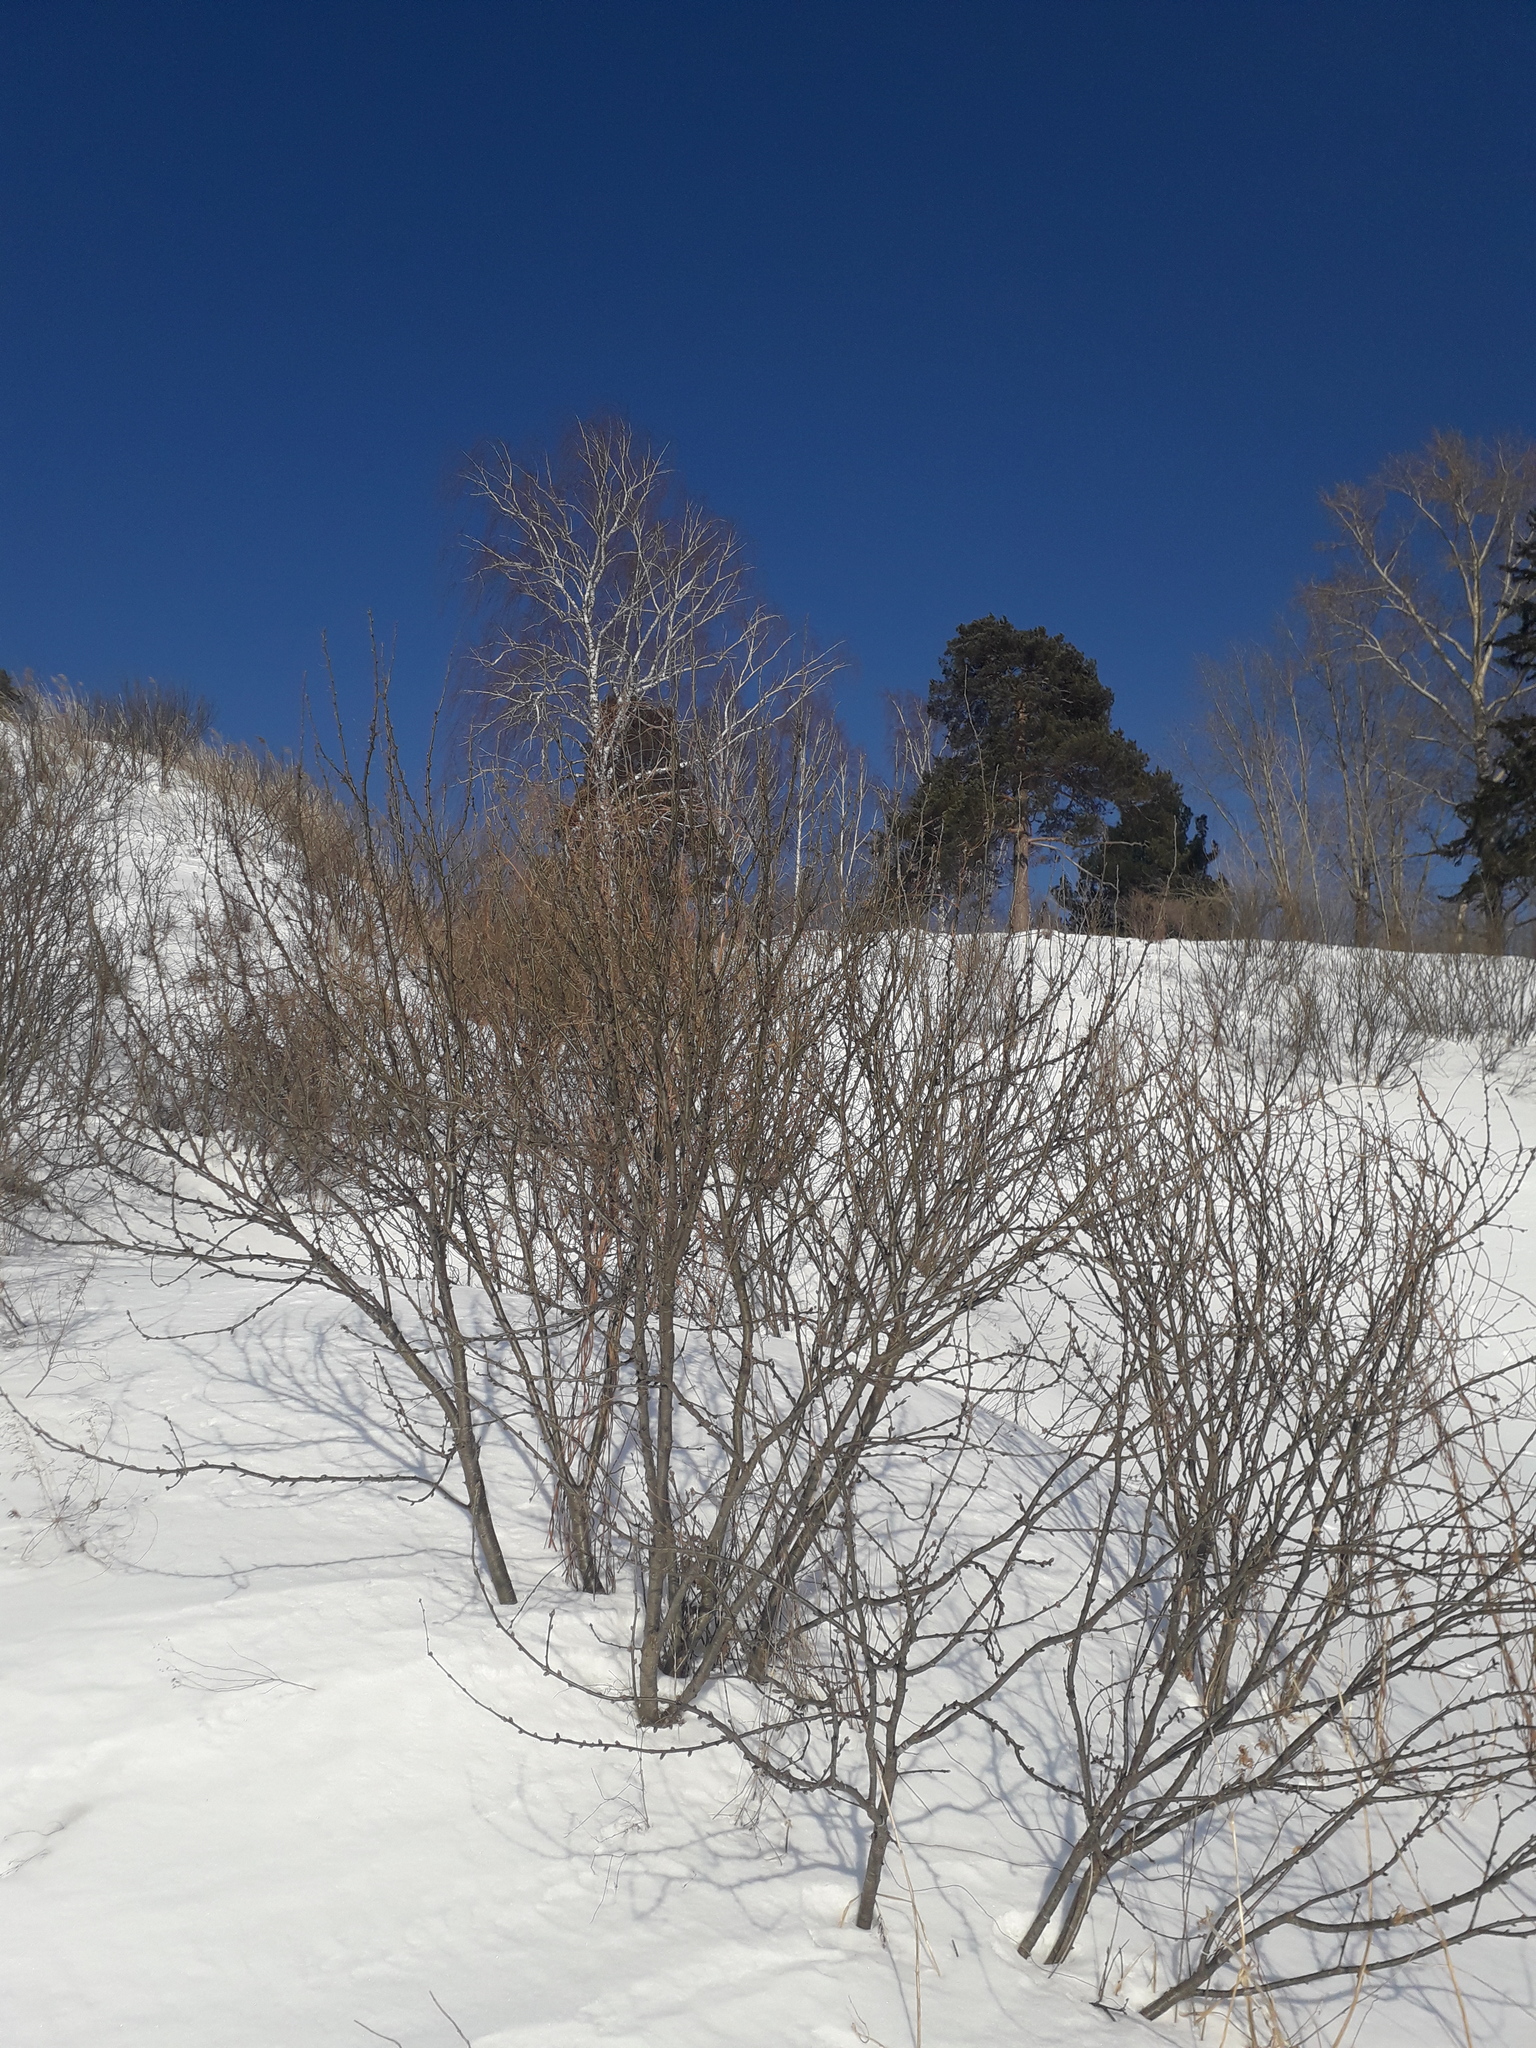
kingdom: Plantae
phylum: Tracheophyta
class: Magnoliopsida
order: Fabales
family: Fabaceae
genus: Caragana
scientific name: Caragana arborescens
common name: Siberian peashrub
